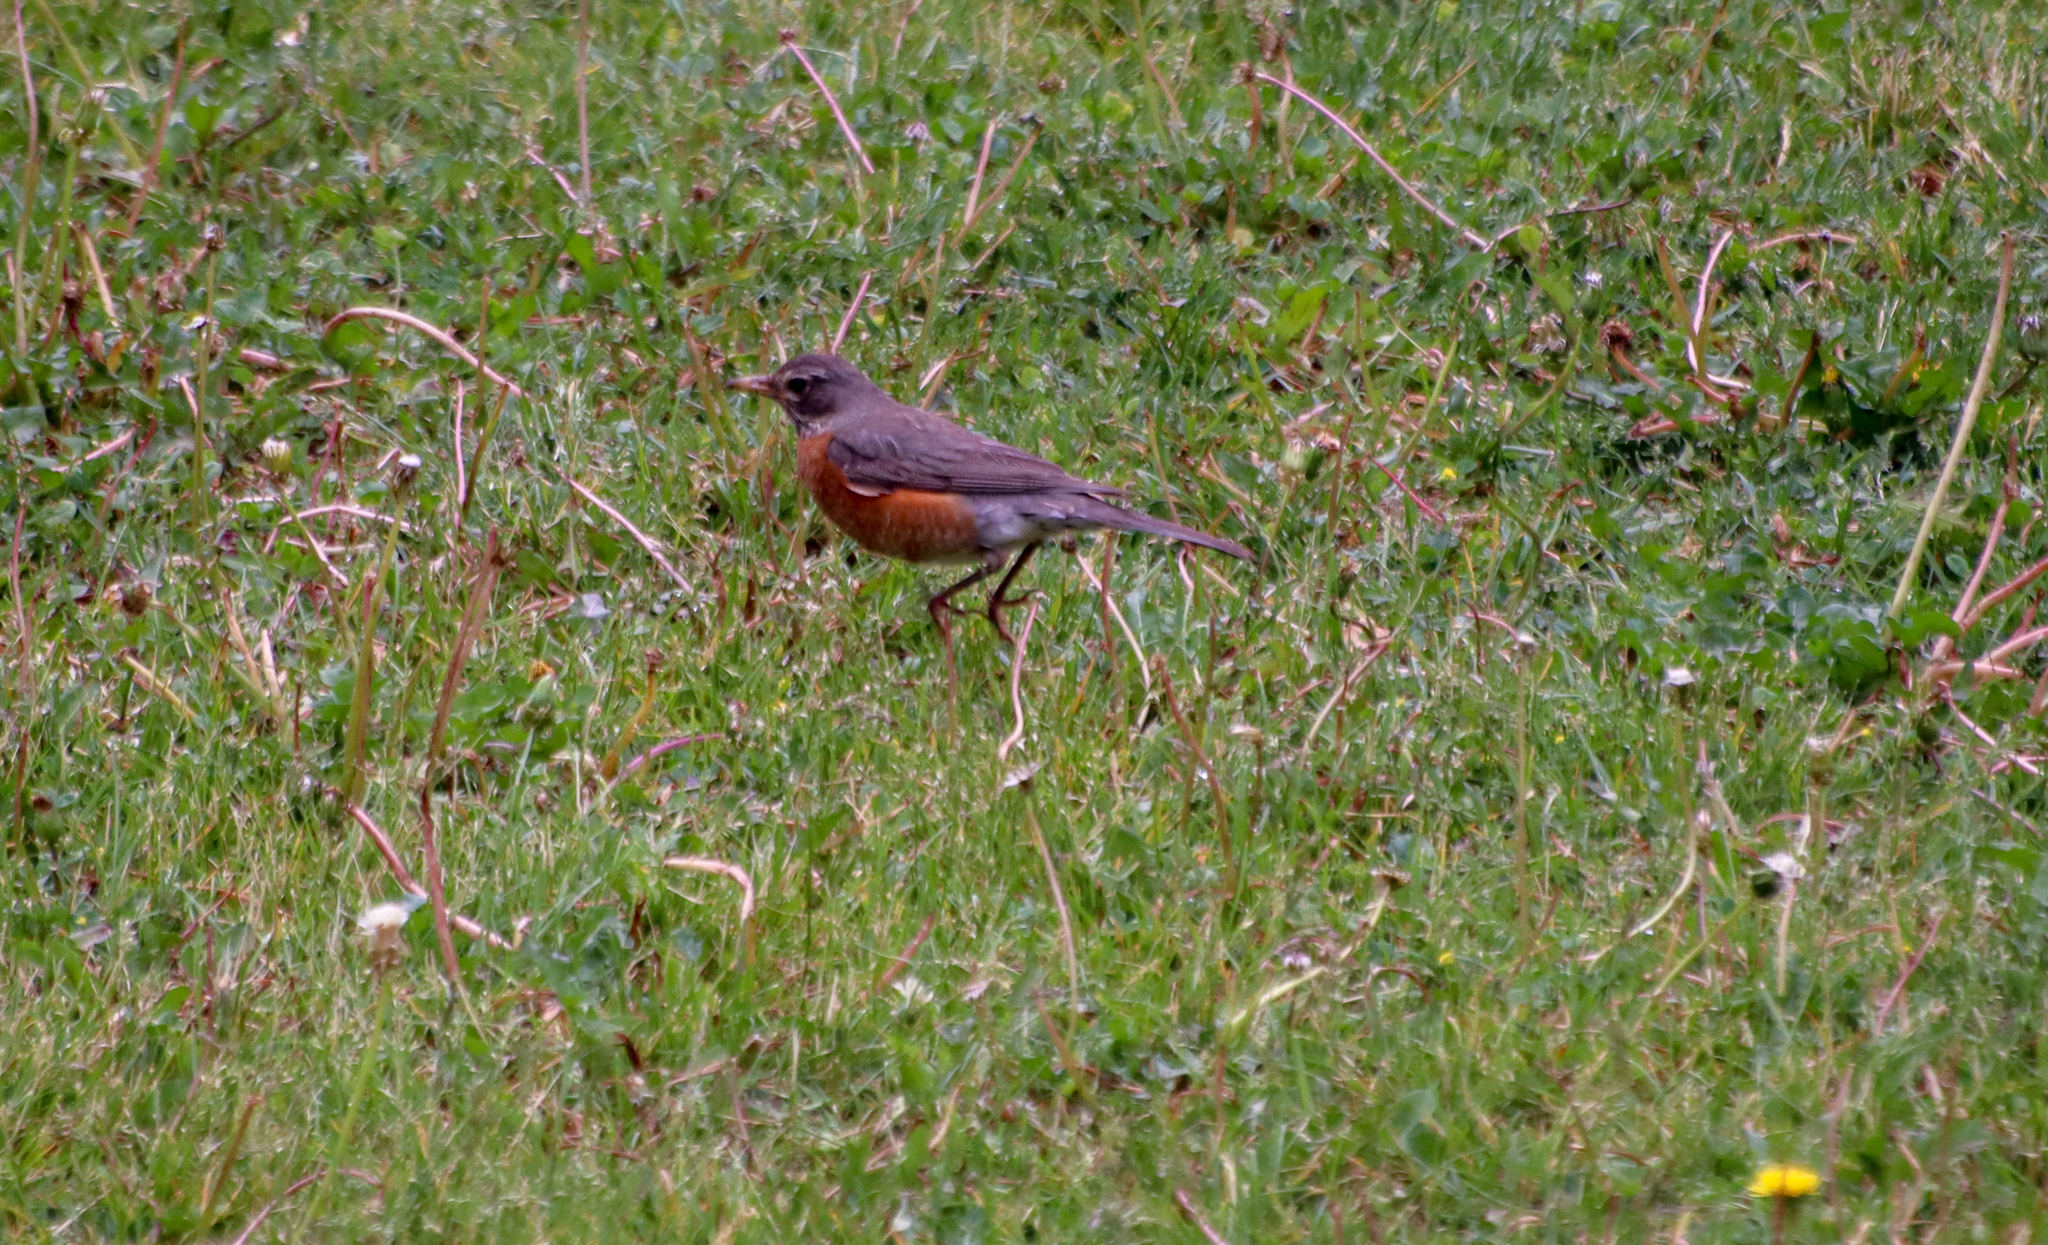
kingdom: Animalia
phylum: Chordata
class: Aves
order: Passeriformes
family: Turdidae
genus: Turdus
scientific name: Turdus migratorius
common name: American robin
